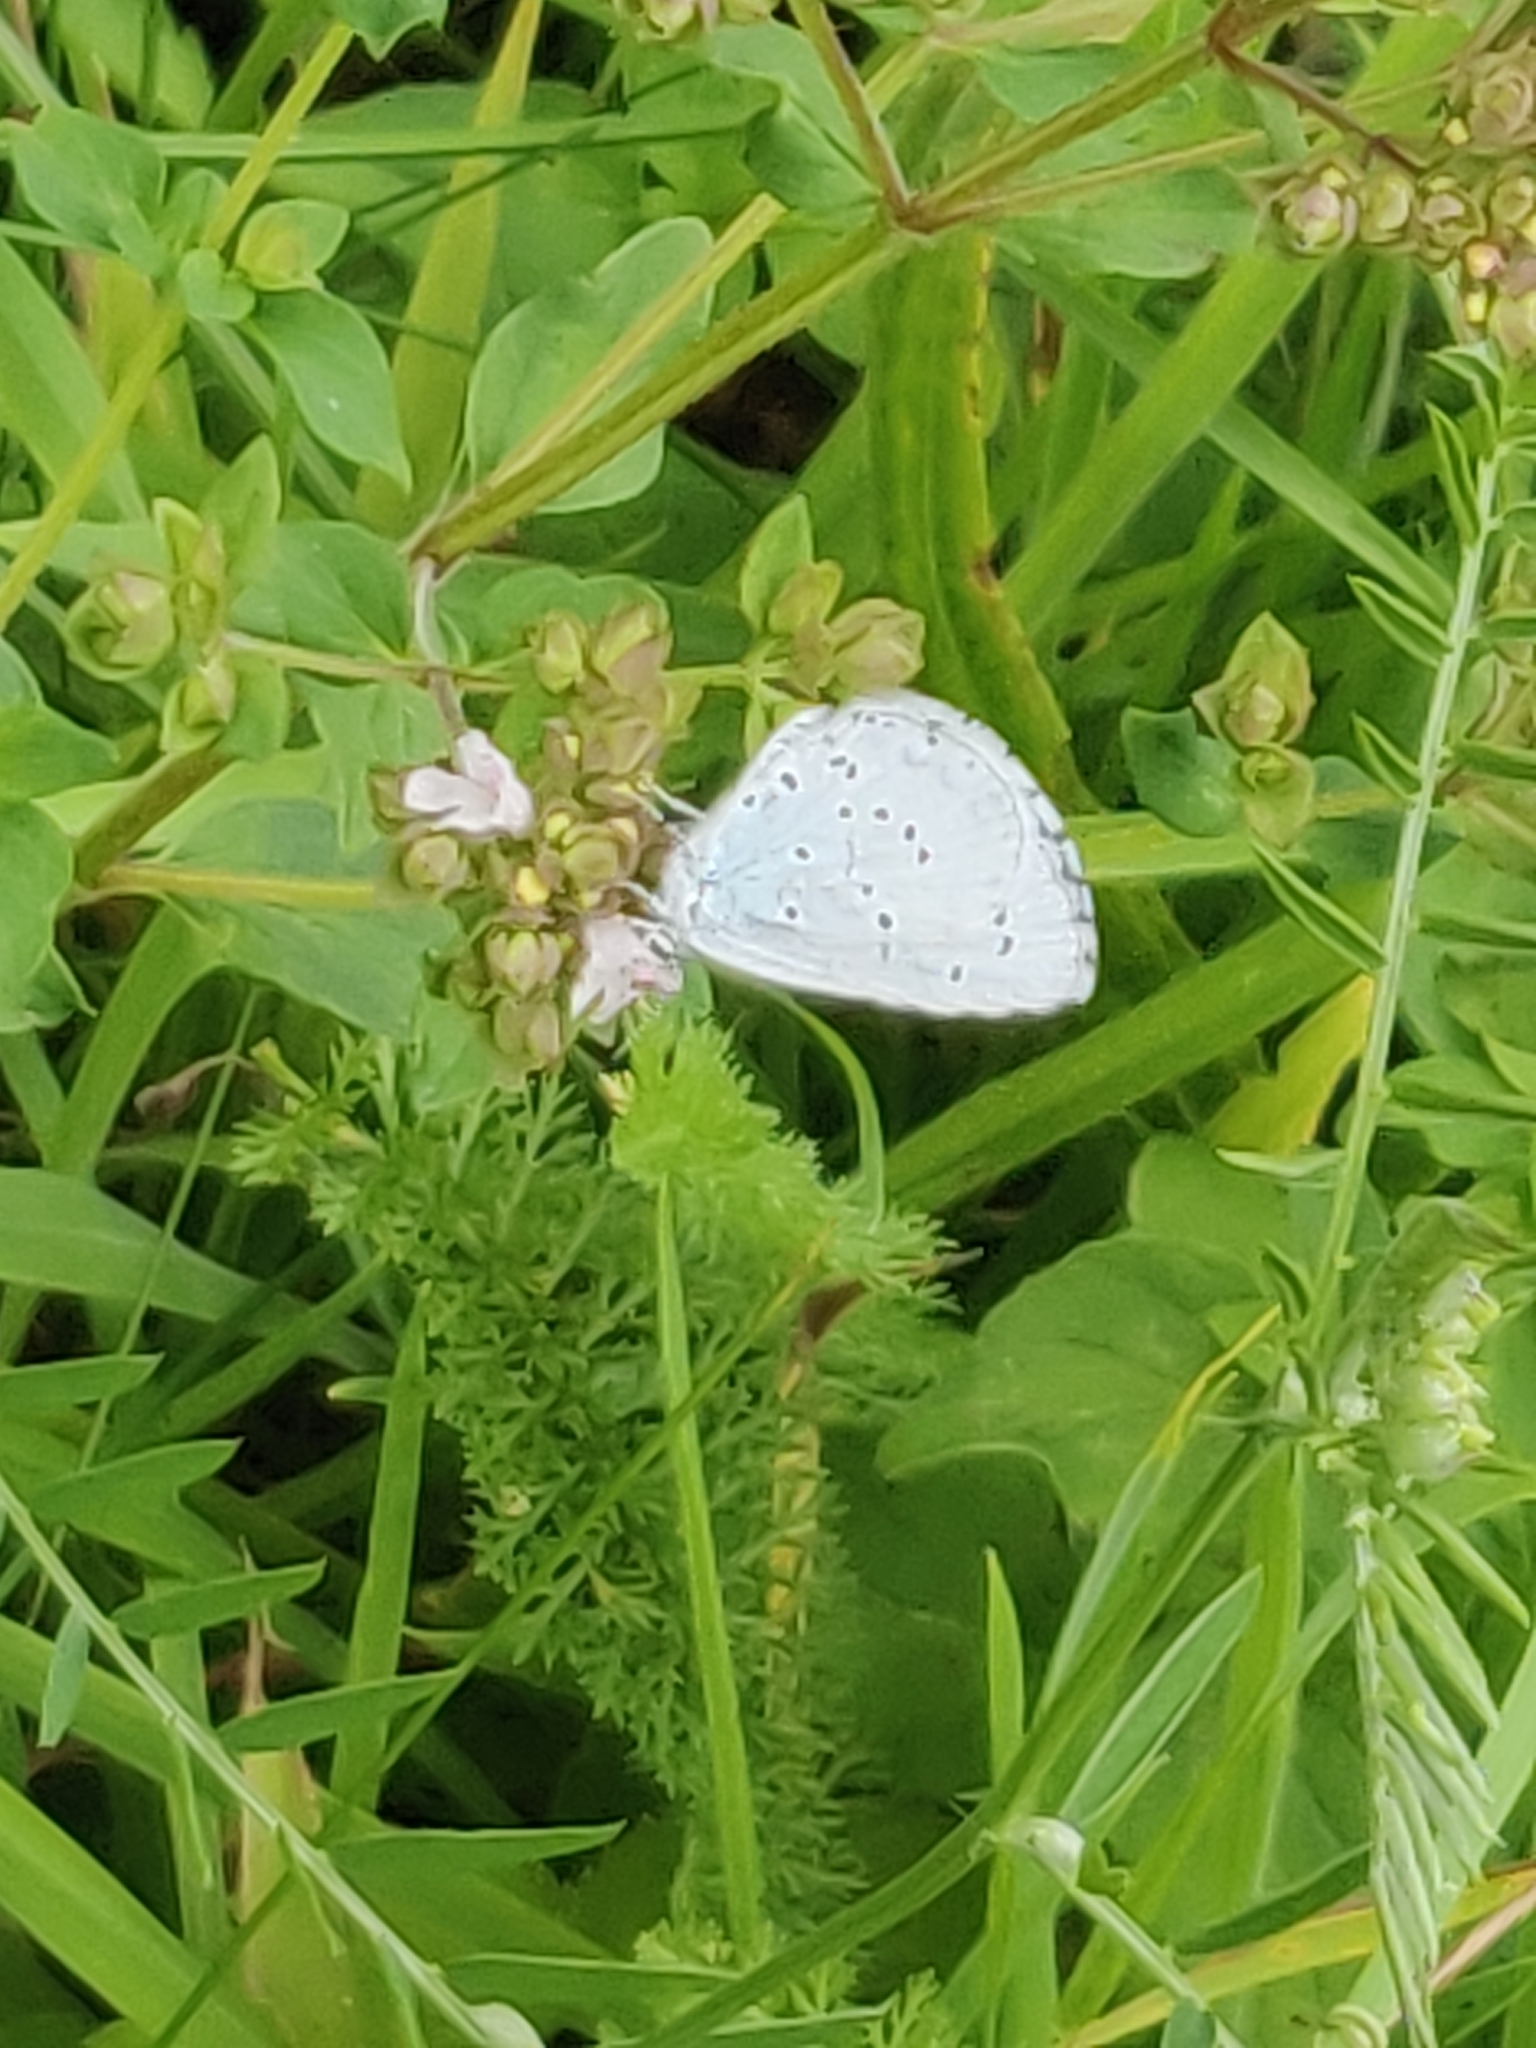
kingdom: Animalia
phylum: Arthropoda
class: Insecta
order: Lepidoptera
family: Lycaenidae
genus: Celastrina
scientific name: Celastrina argiolus
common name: Holly blue
